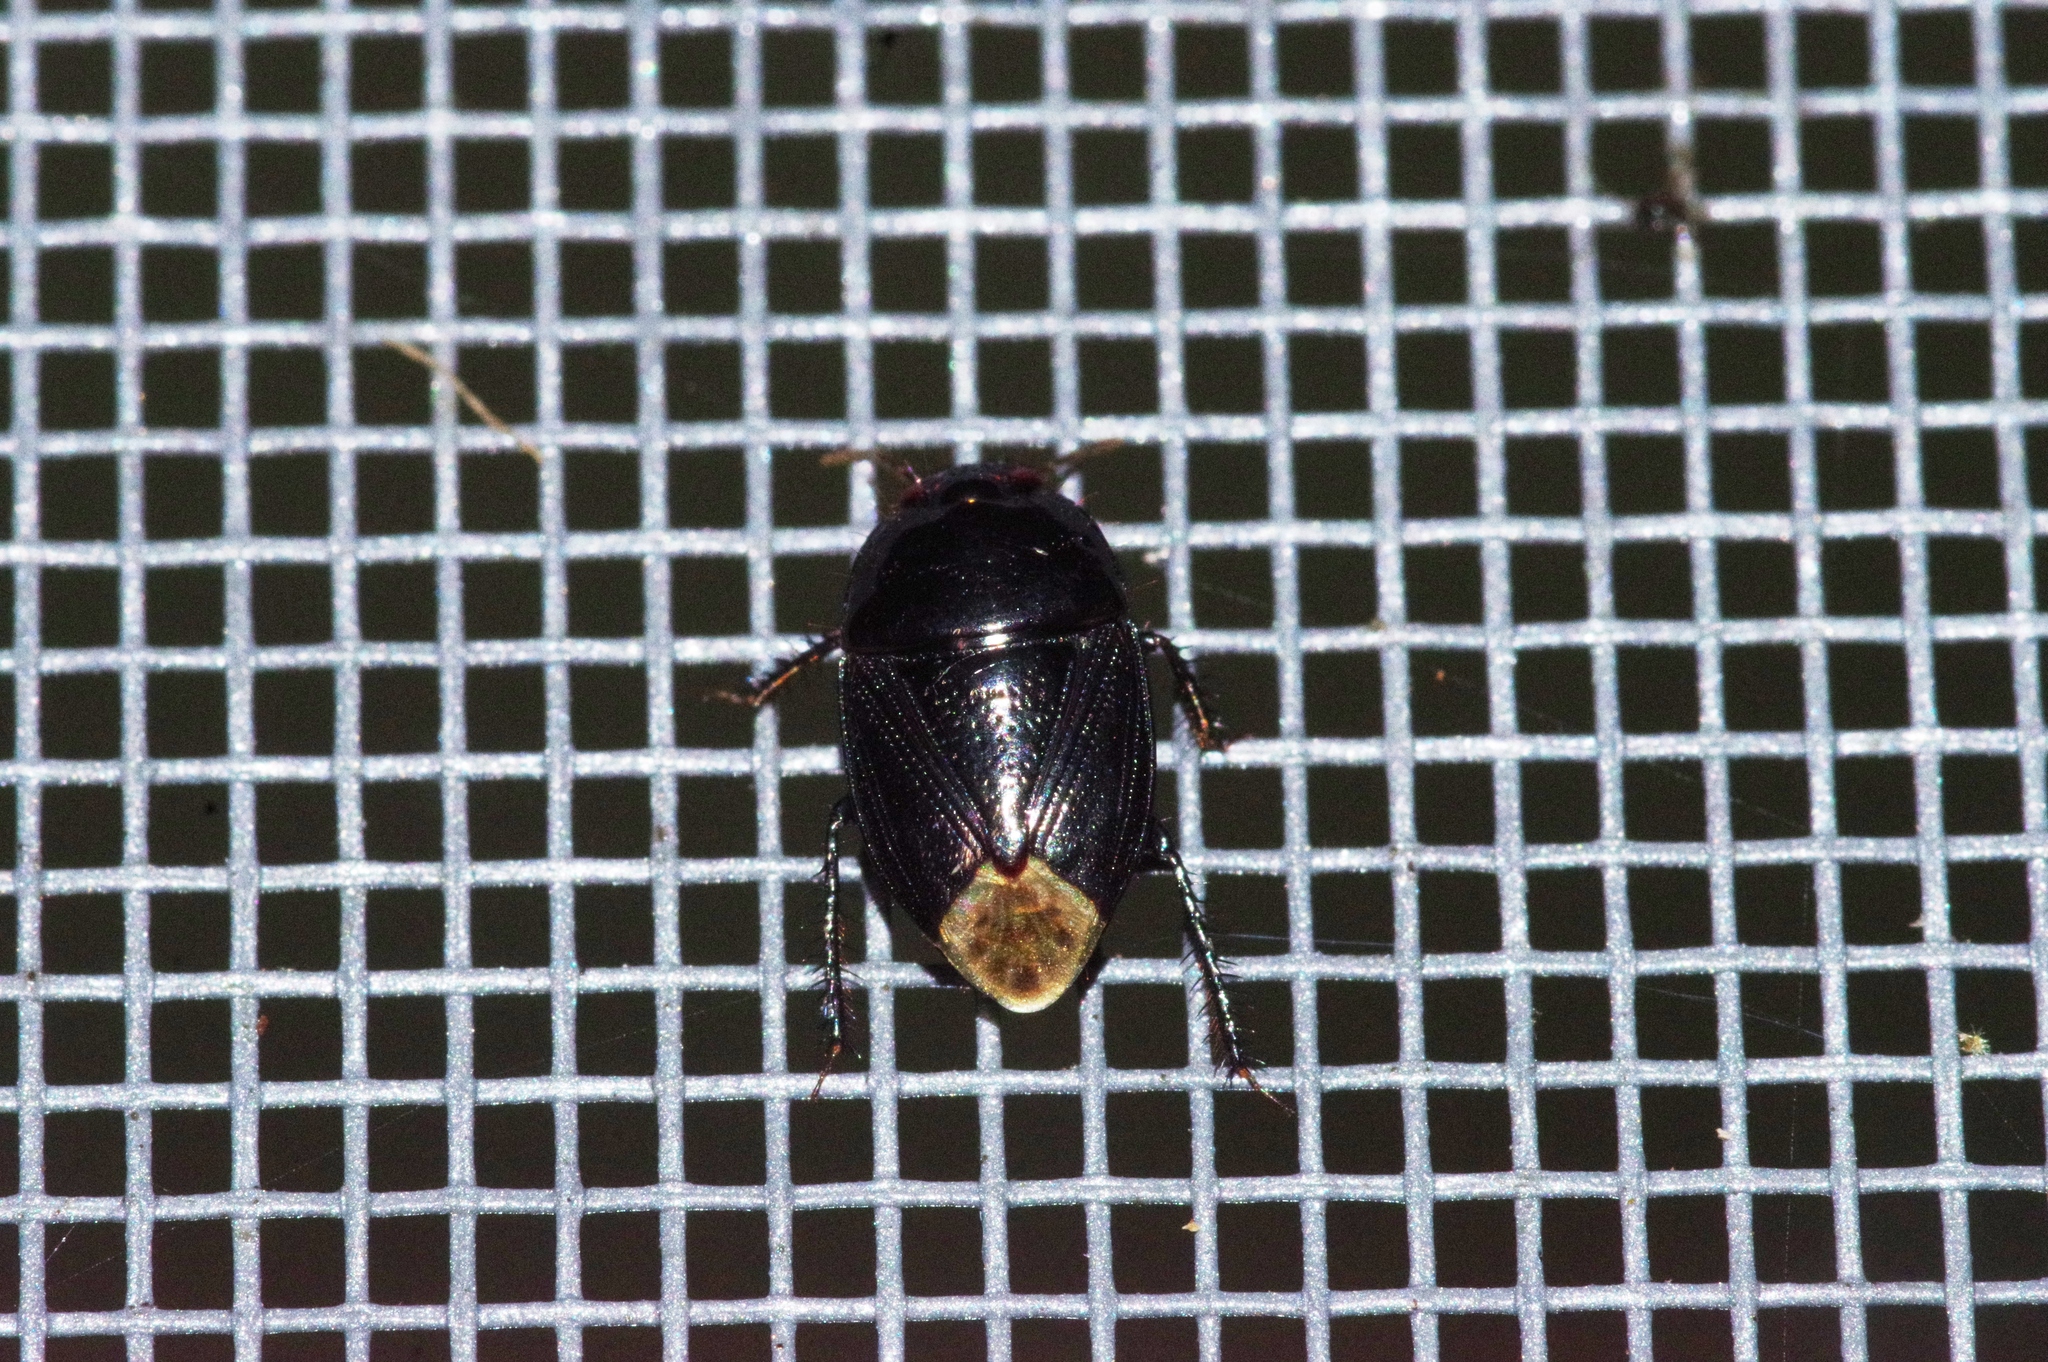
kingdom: Animalia
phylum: Arthropoda
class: Insecta
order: Hemiptera
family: Cydnidae
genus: Macroscytus
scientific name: Macroscytus japonensis
